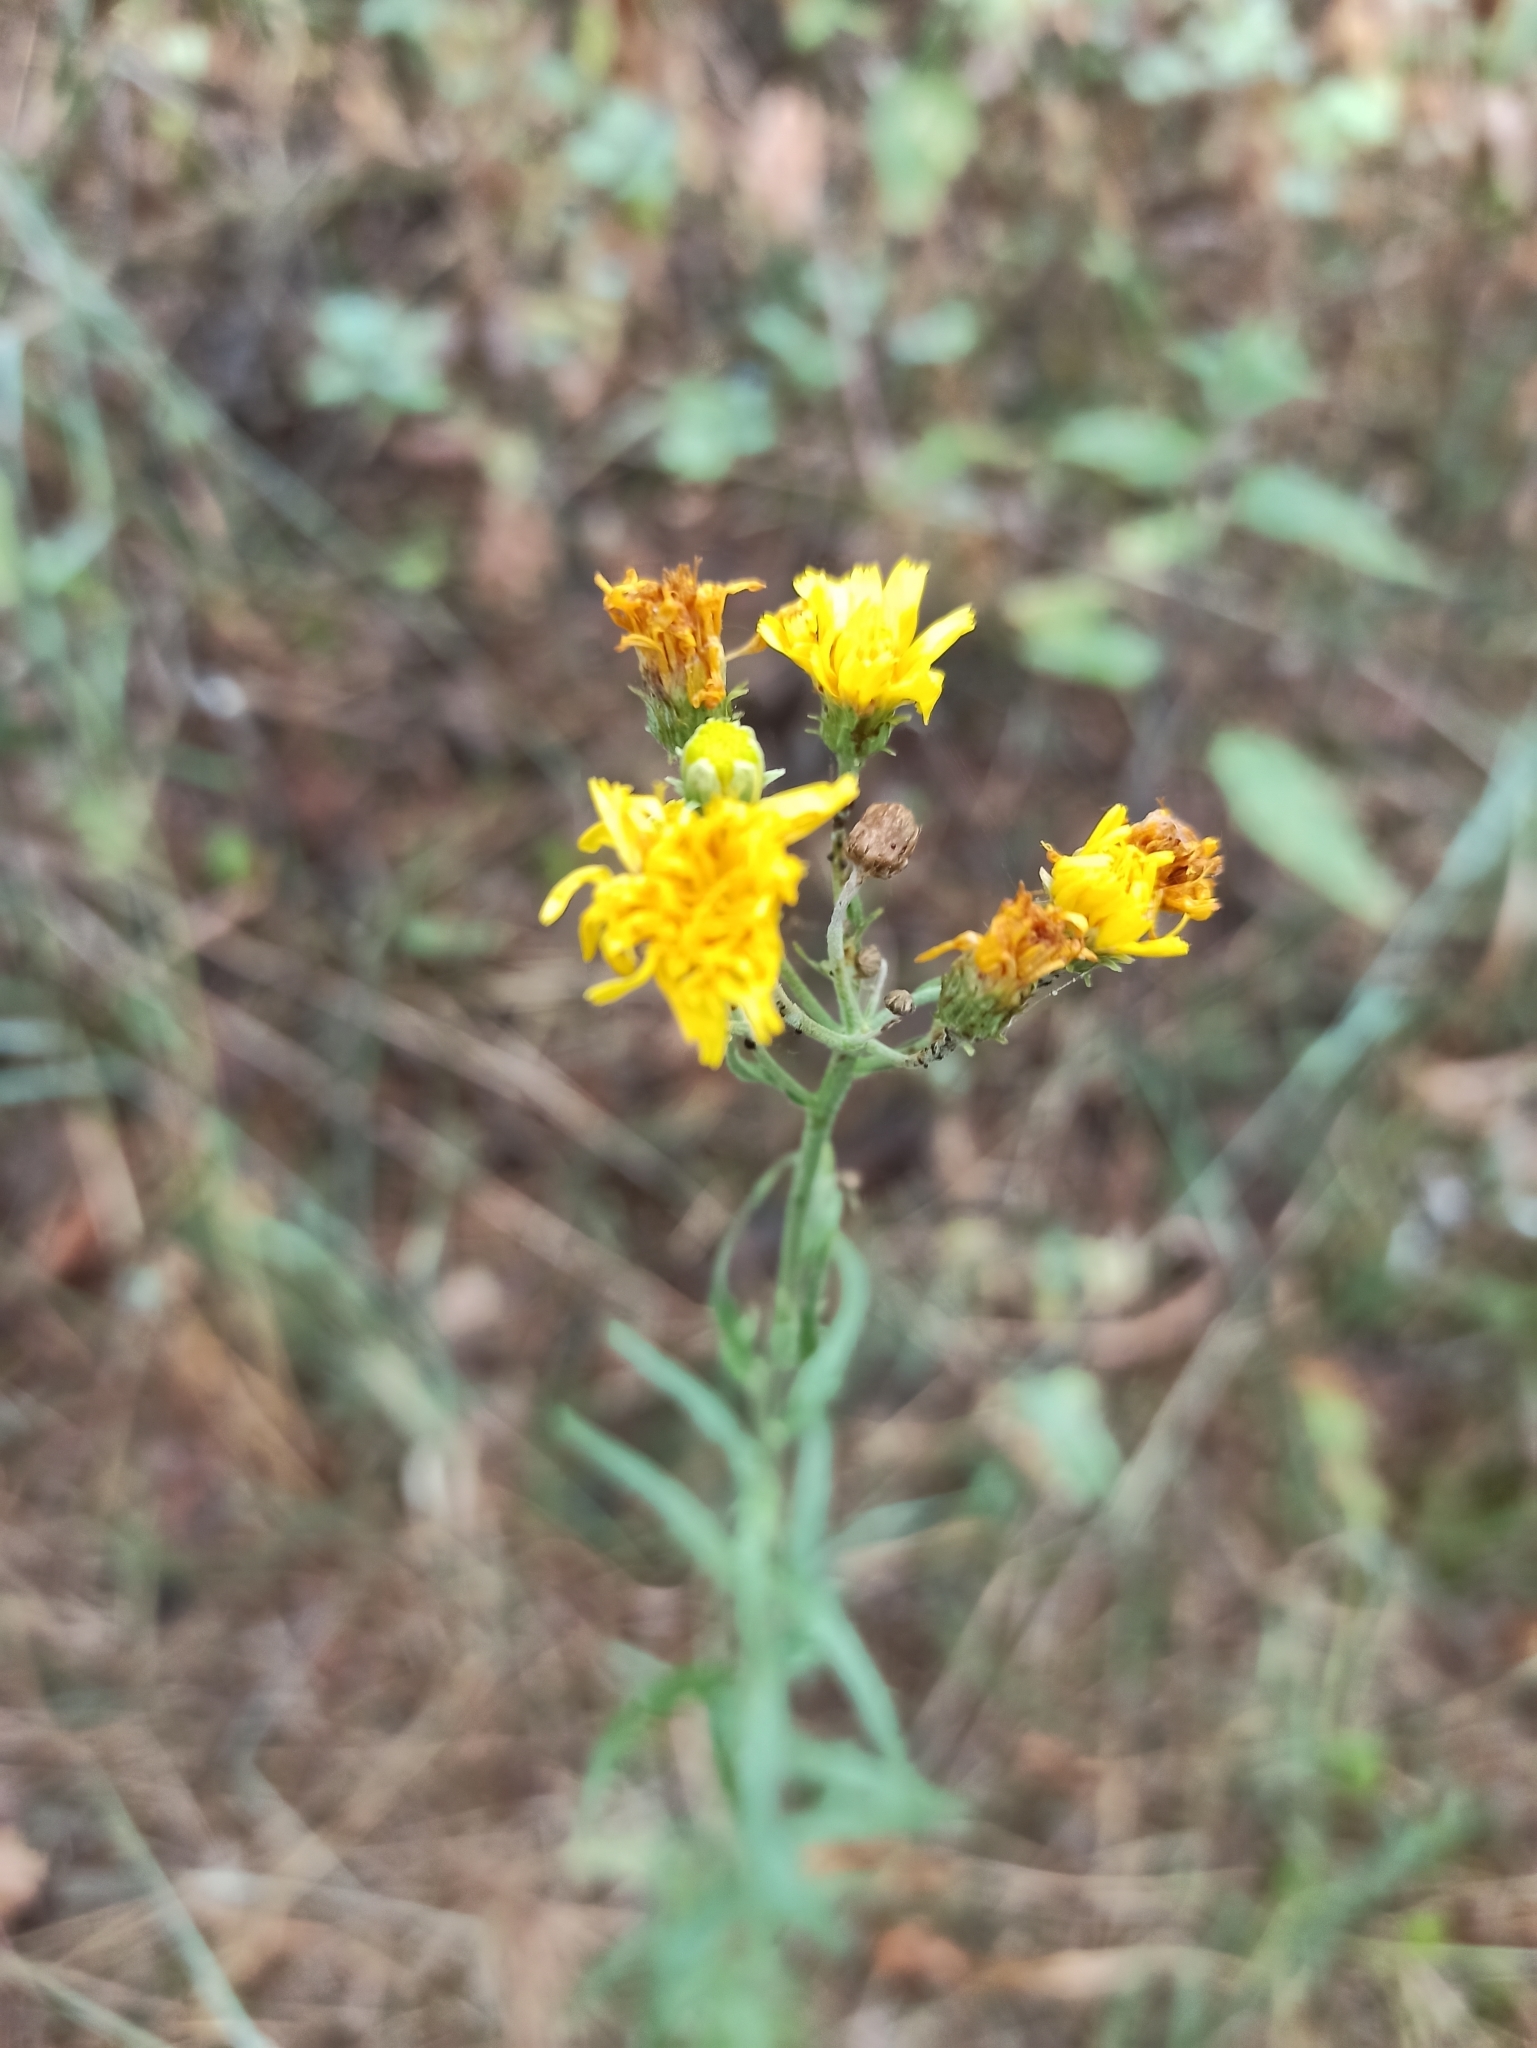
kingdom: Plantae
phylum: Tracheophyta
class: Magnoliopsida
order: Asterales
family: Asteraceae
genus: Hieracium
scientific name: Hieracium umbellatum
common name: Northern hawkweed
